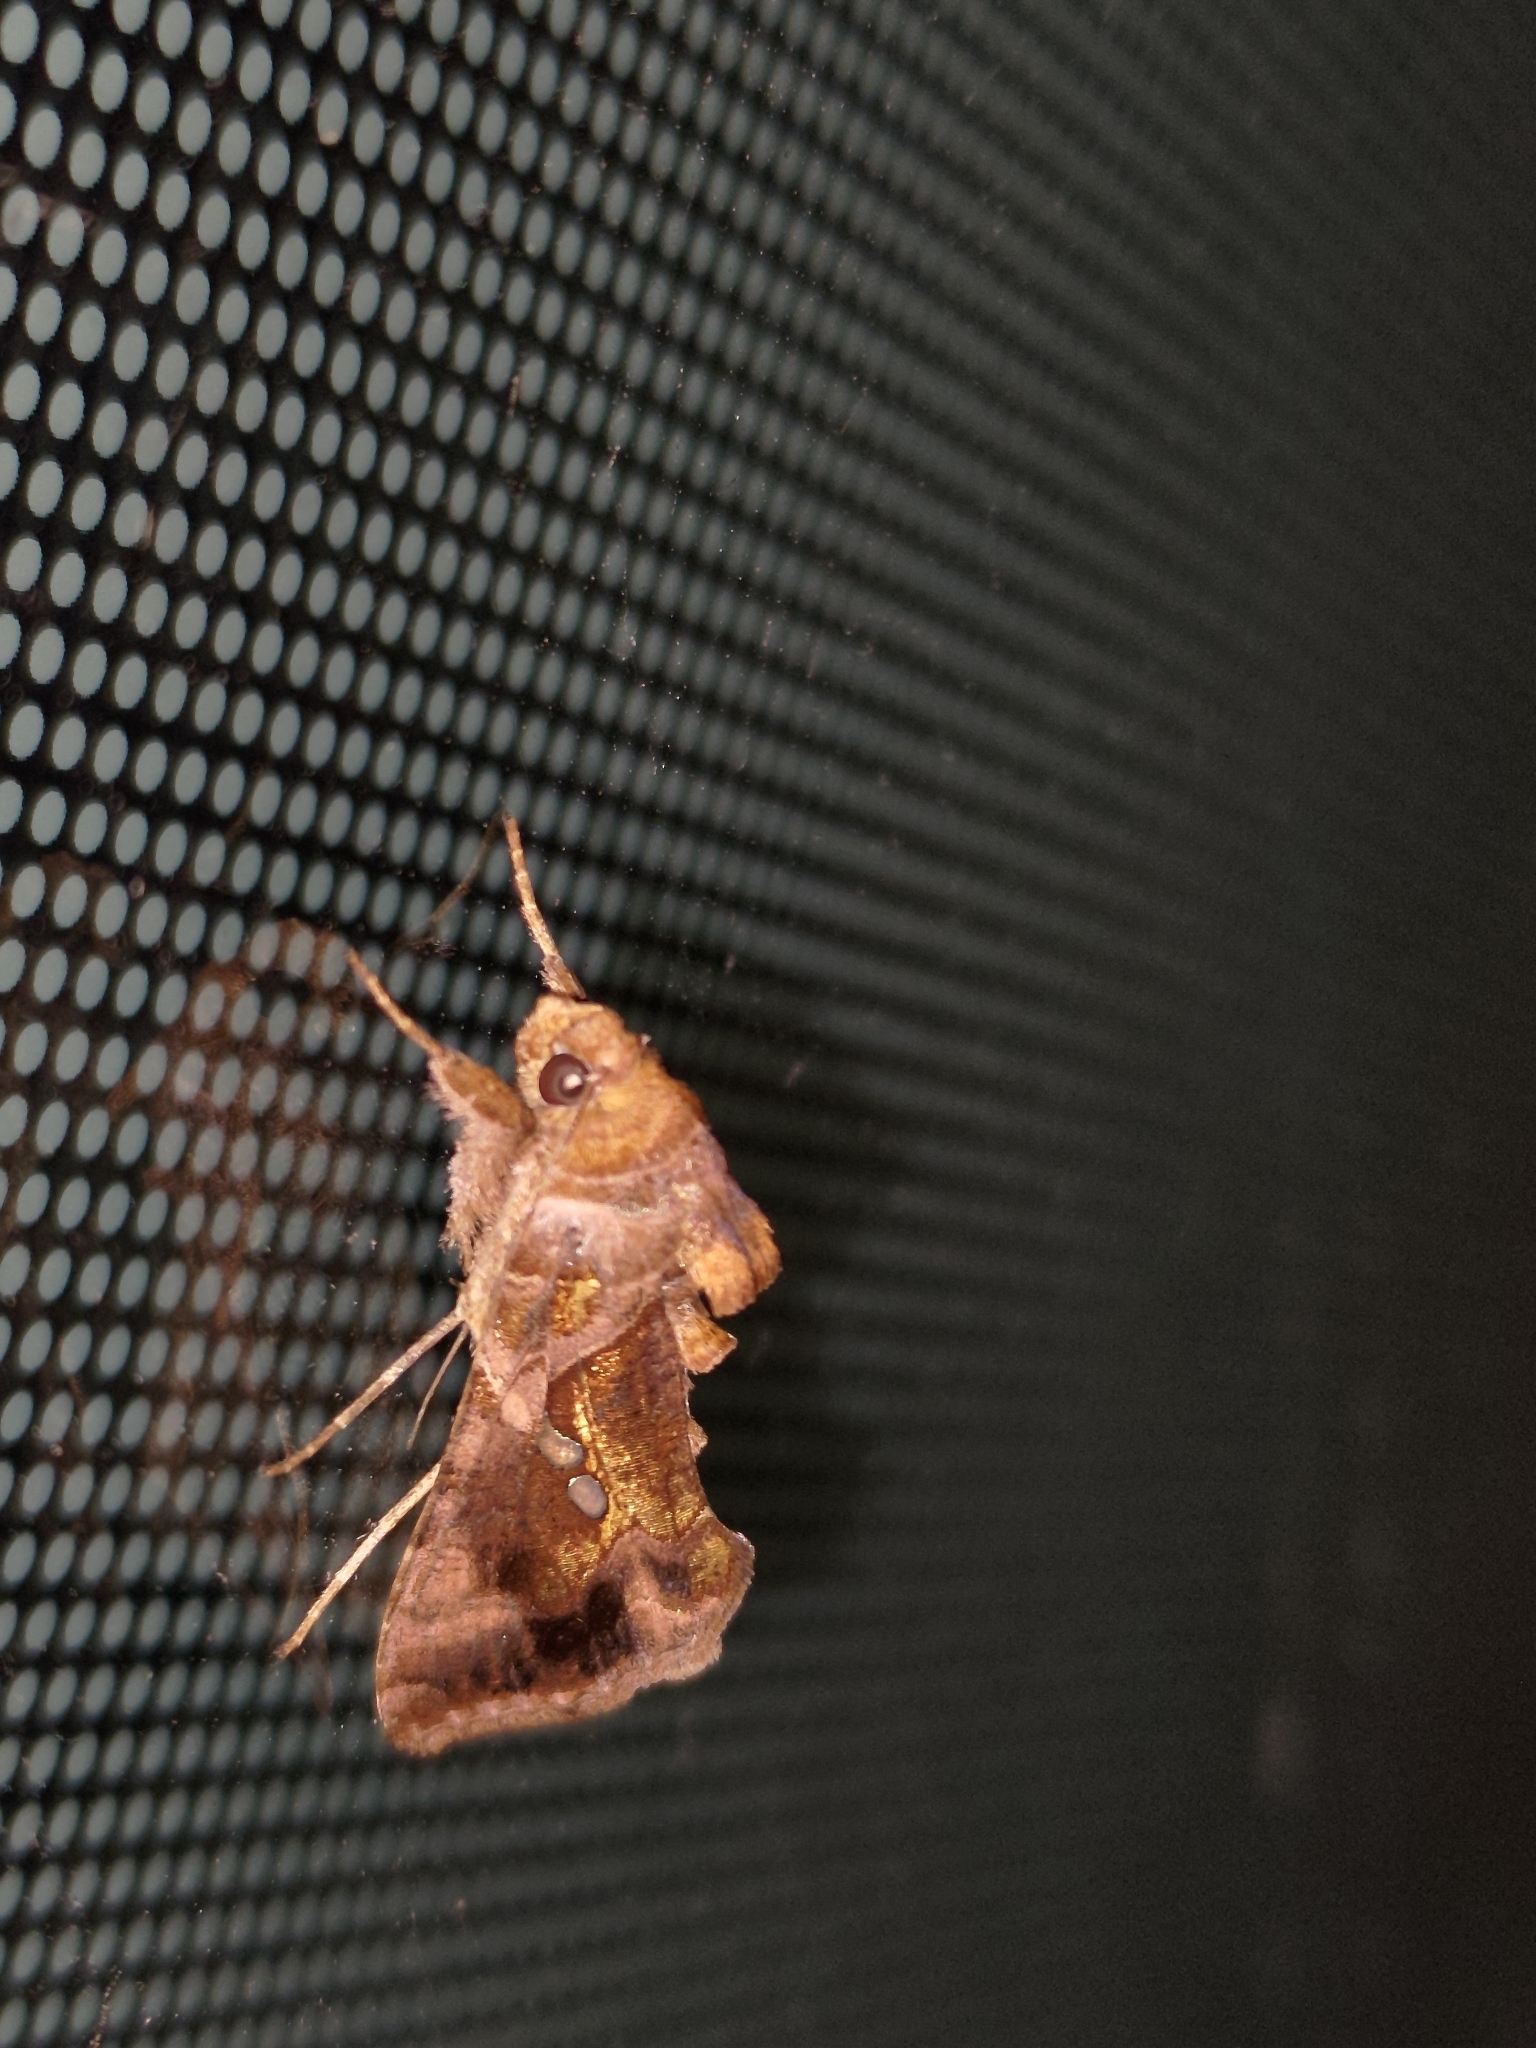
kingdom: Animalia
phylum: Arthropoda
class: Insecta
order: Lepidoptera
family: Noctuidae
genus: Chrysodeixis
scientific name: Chrysodeixis chalcites
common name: Golden twin-spot
